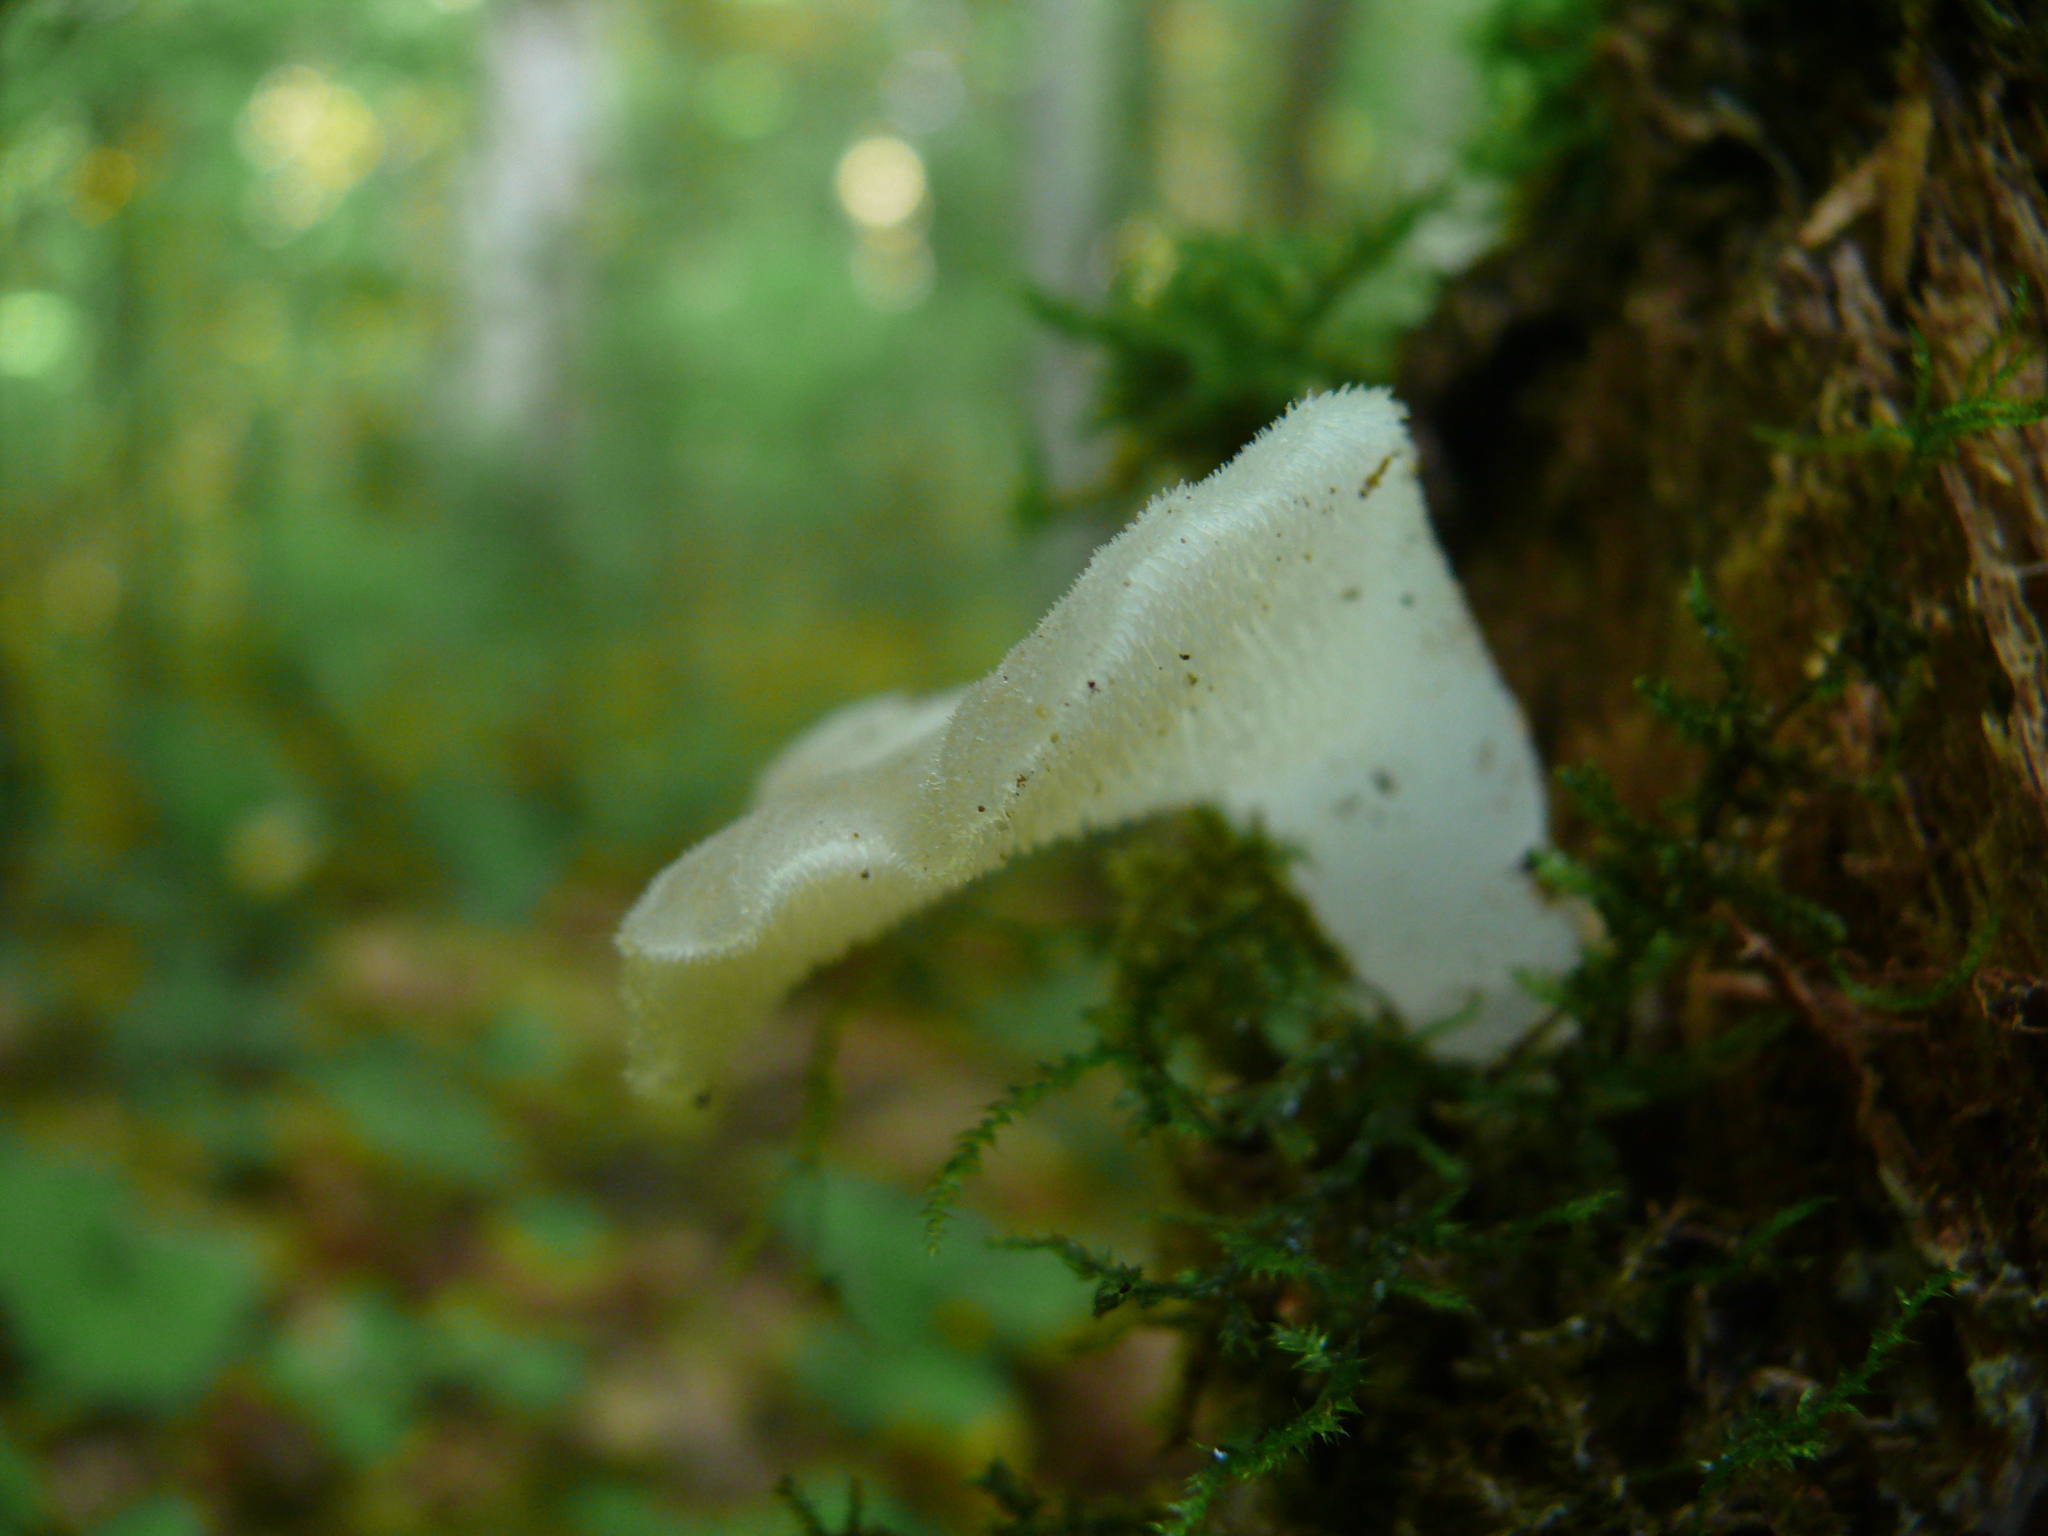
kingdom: Fungi
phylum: Basidiomycota
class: Agaricomycetes
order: Auriculariales
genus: Pseudohydnum
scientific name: Pseudohydnum gelatinosum
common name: Jelly tongue
